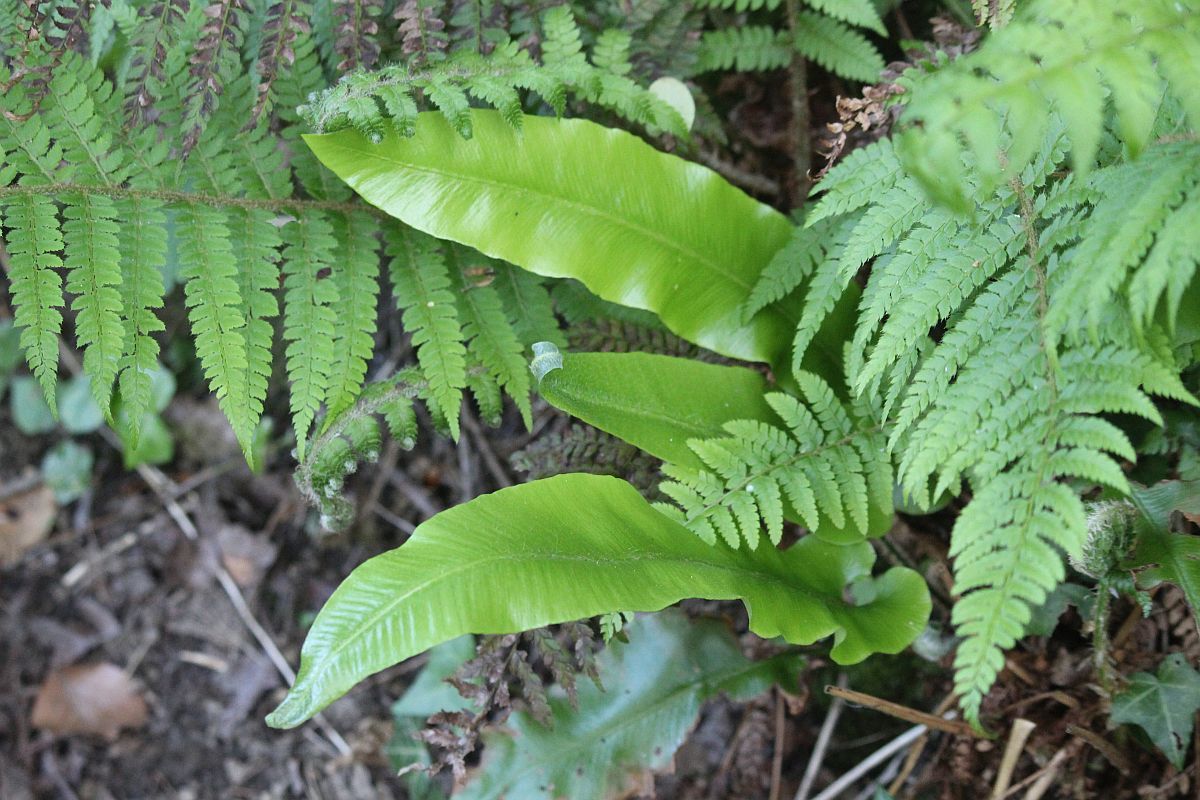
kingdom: Plantae
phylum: Tracheophyta
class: Polypodiopsida
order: Polypodiales
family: Aspleniaceae
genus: Asplenium
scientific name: Asplenium scolopendrium
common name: Hart's-tongue fern
